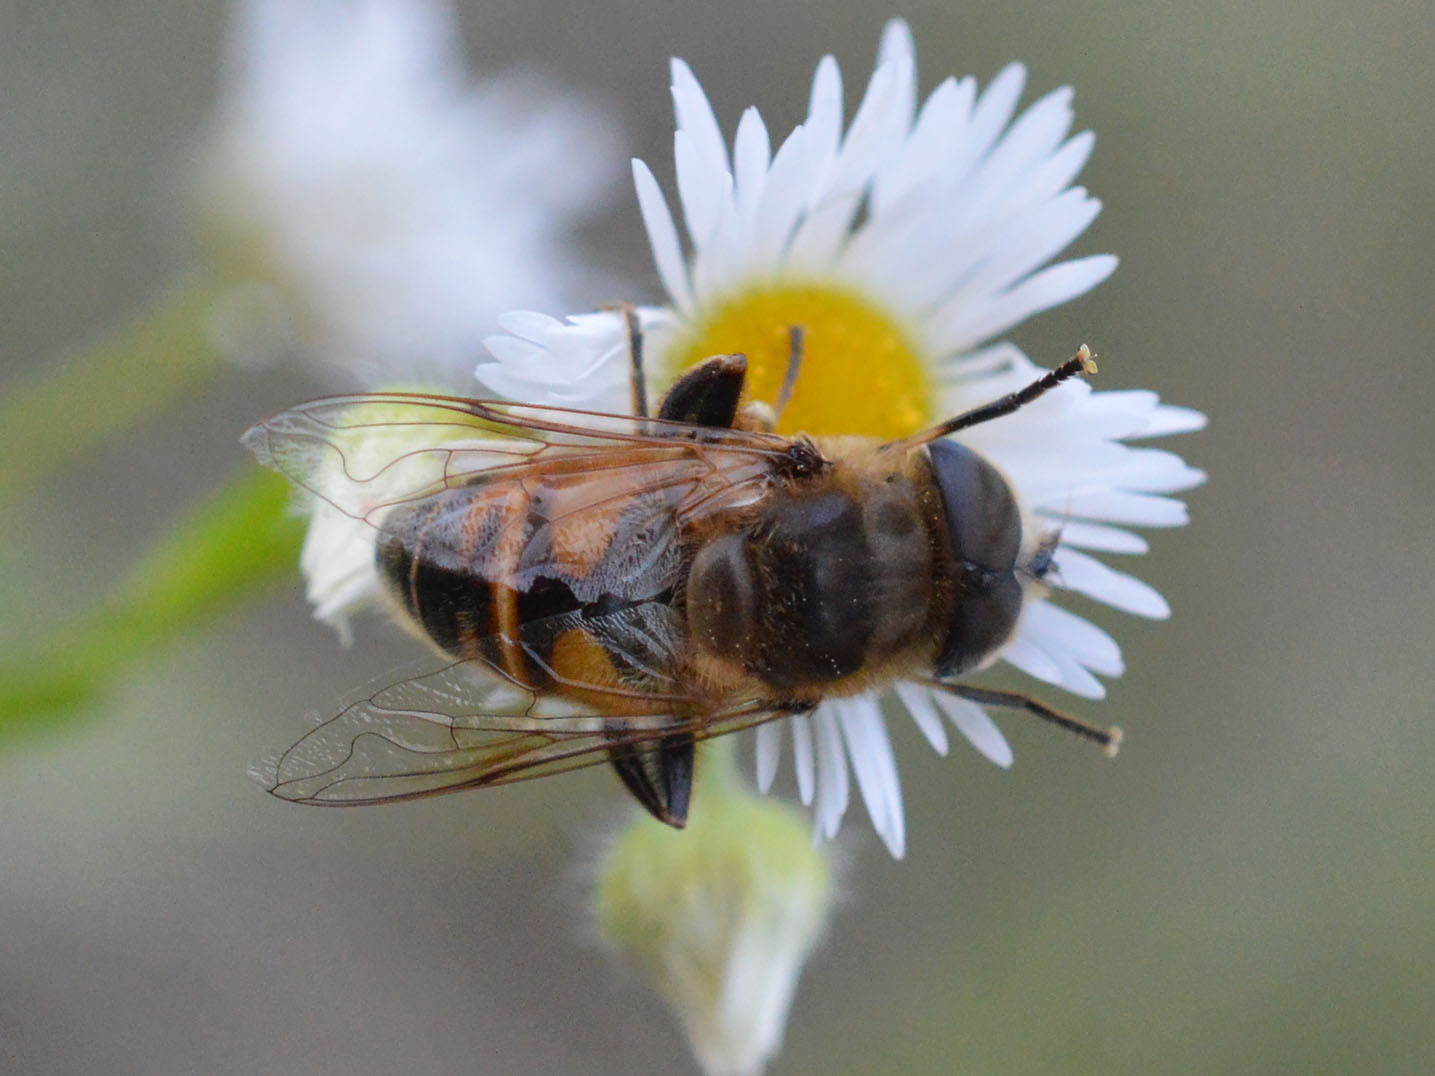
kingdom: Animalia
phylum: Arthropoda
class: Insecta
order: Diptera
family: Syrphidae
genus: Eristalis
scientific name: Eristalis tenax
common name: Drone fly
